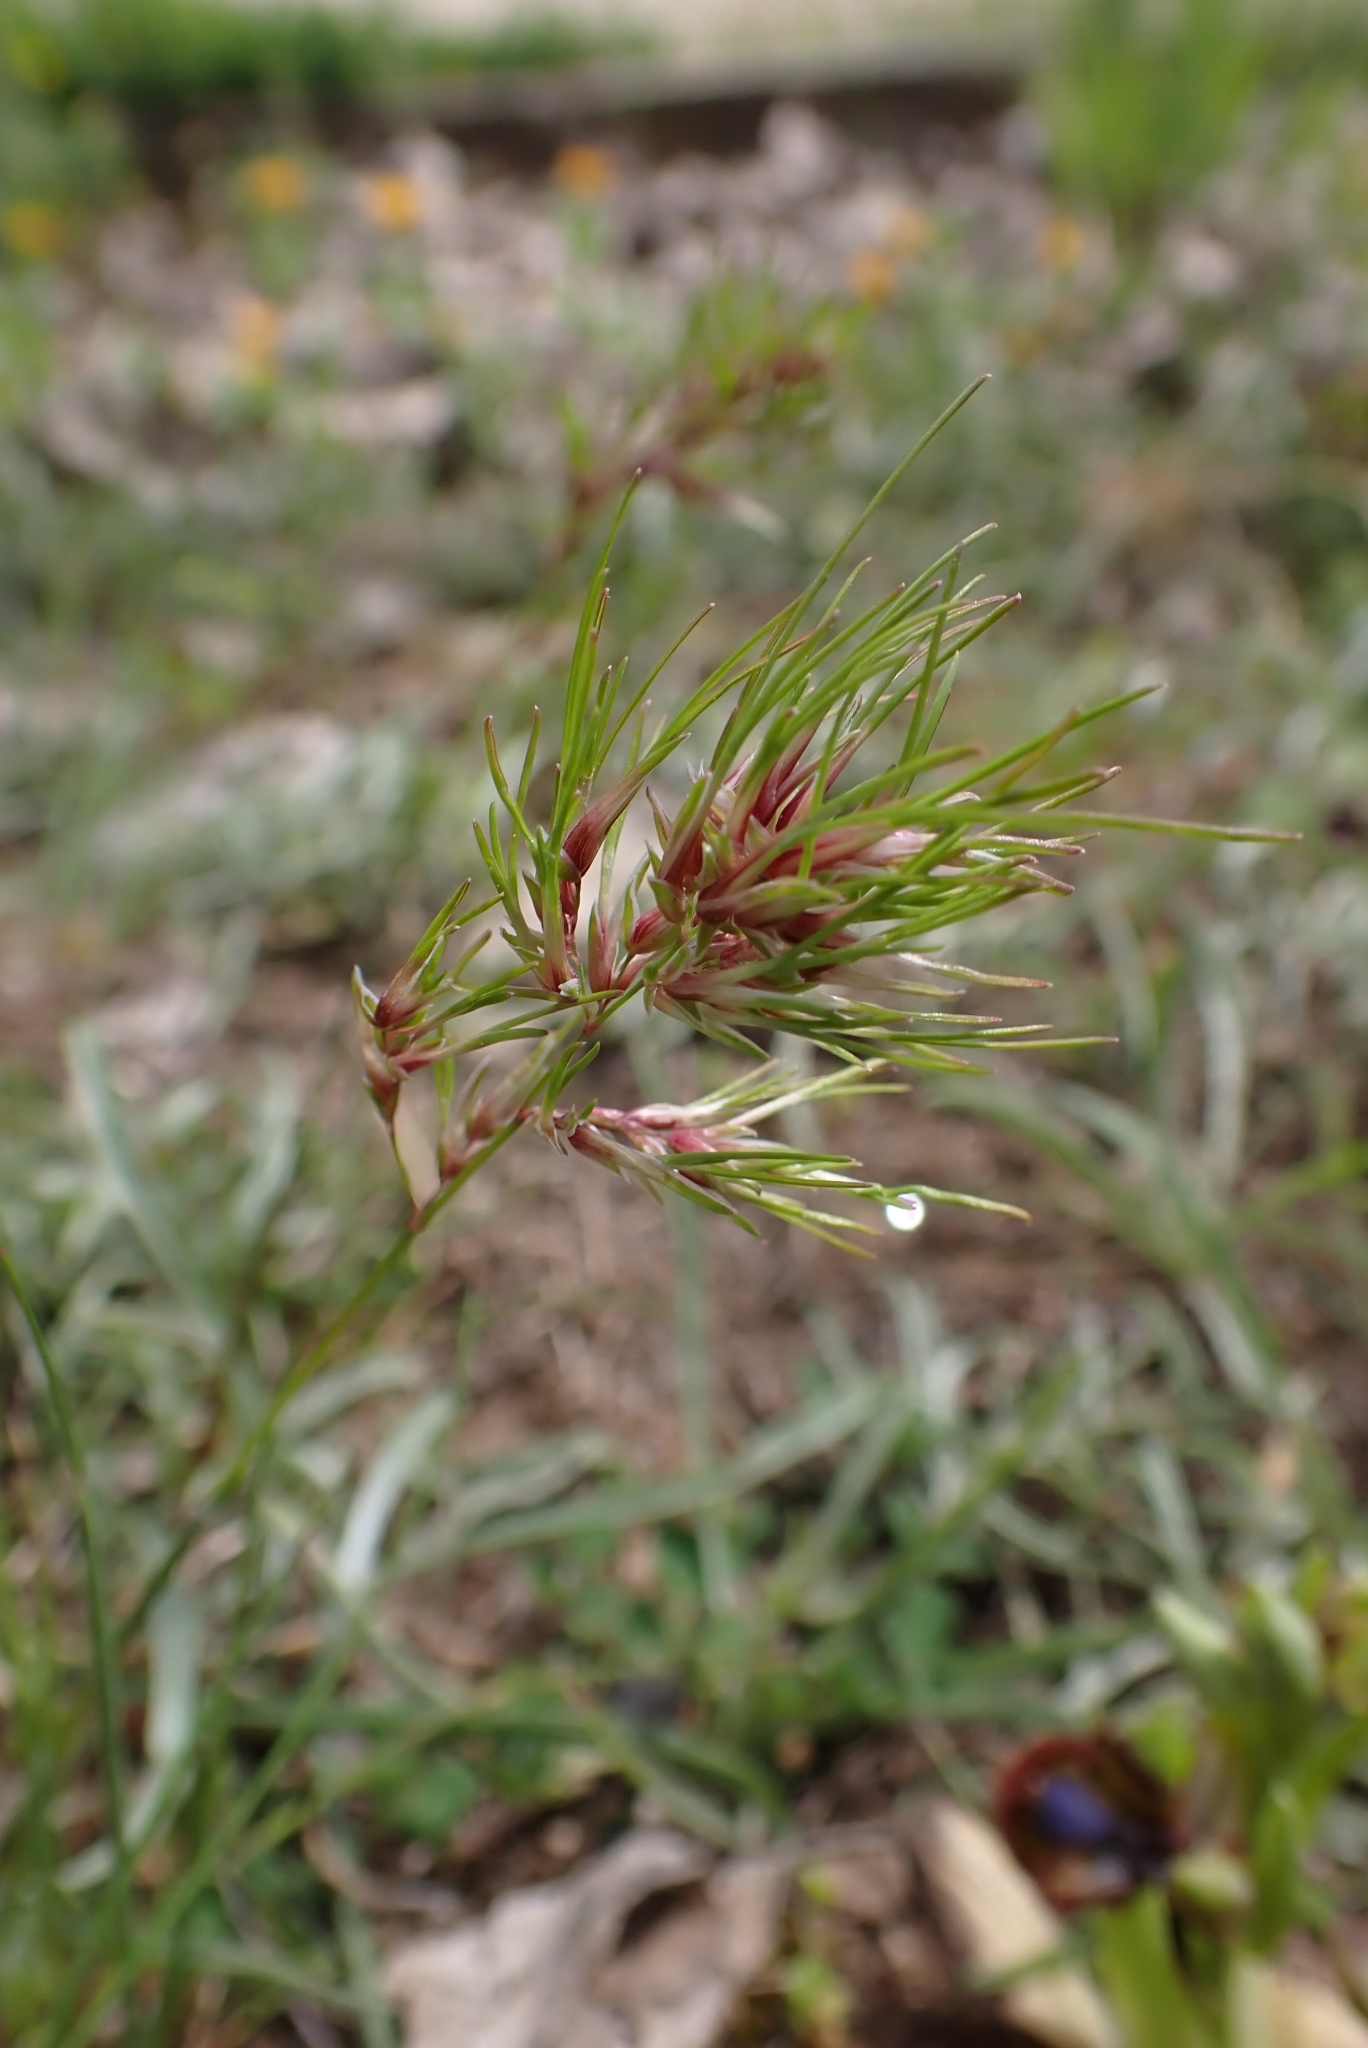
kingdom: Plantae
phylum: Tracheophyta
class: Liliopsida
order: Poales
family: Poaceae
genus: Poa
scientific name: Poa bulbosa
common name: Bulbous bluegrass
